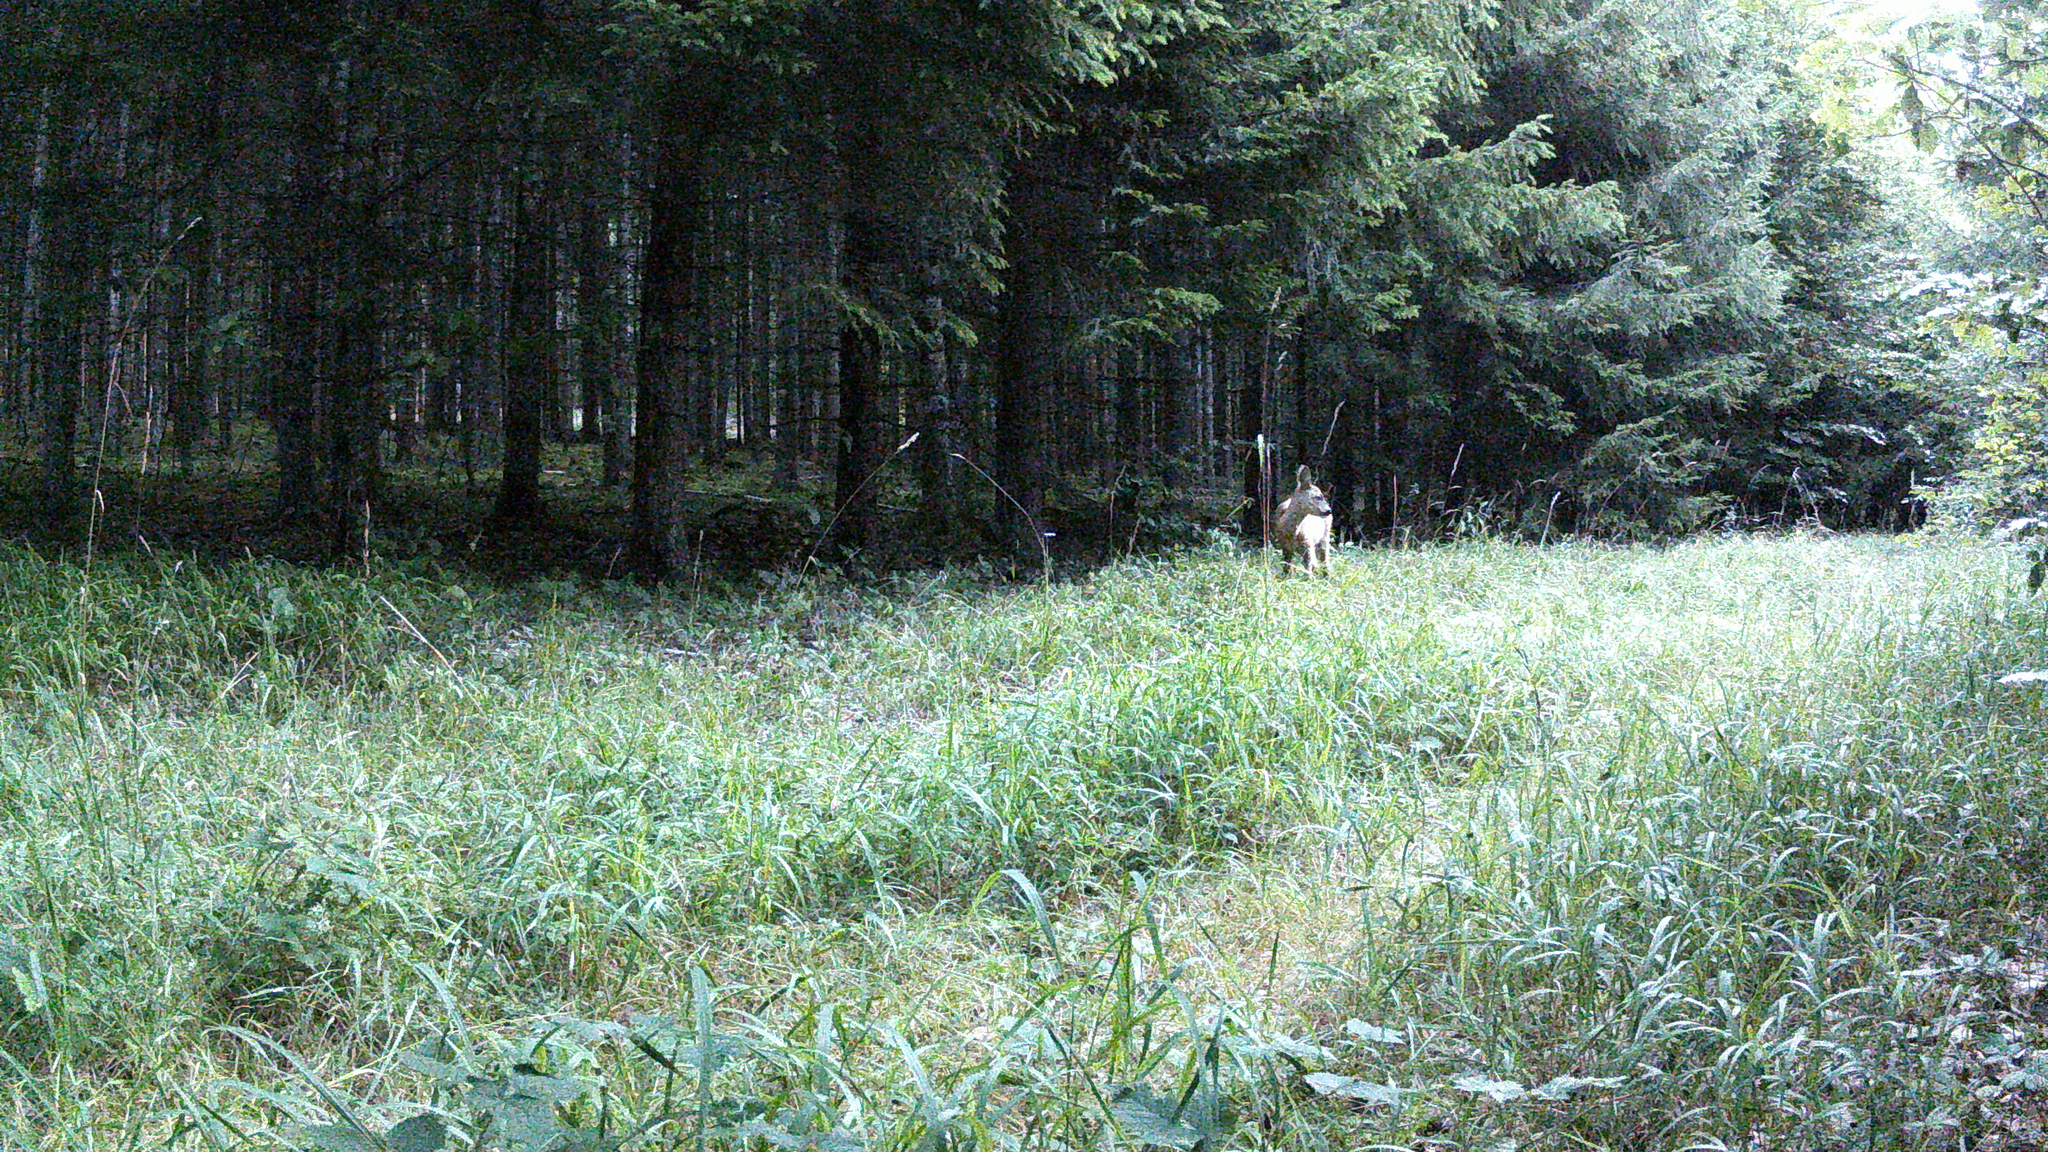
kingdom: Animalia
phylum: Chordata
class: Mammalia
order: Artiodactyla
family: Cervidae
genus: Capreolus
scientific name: Capreolus capreolus
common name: Western roe deer
